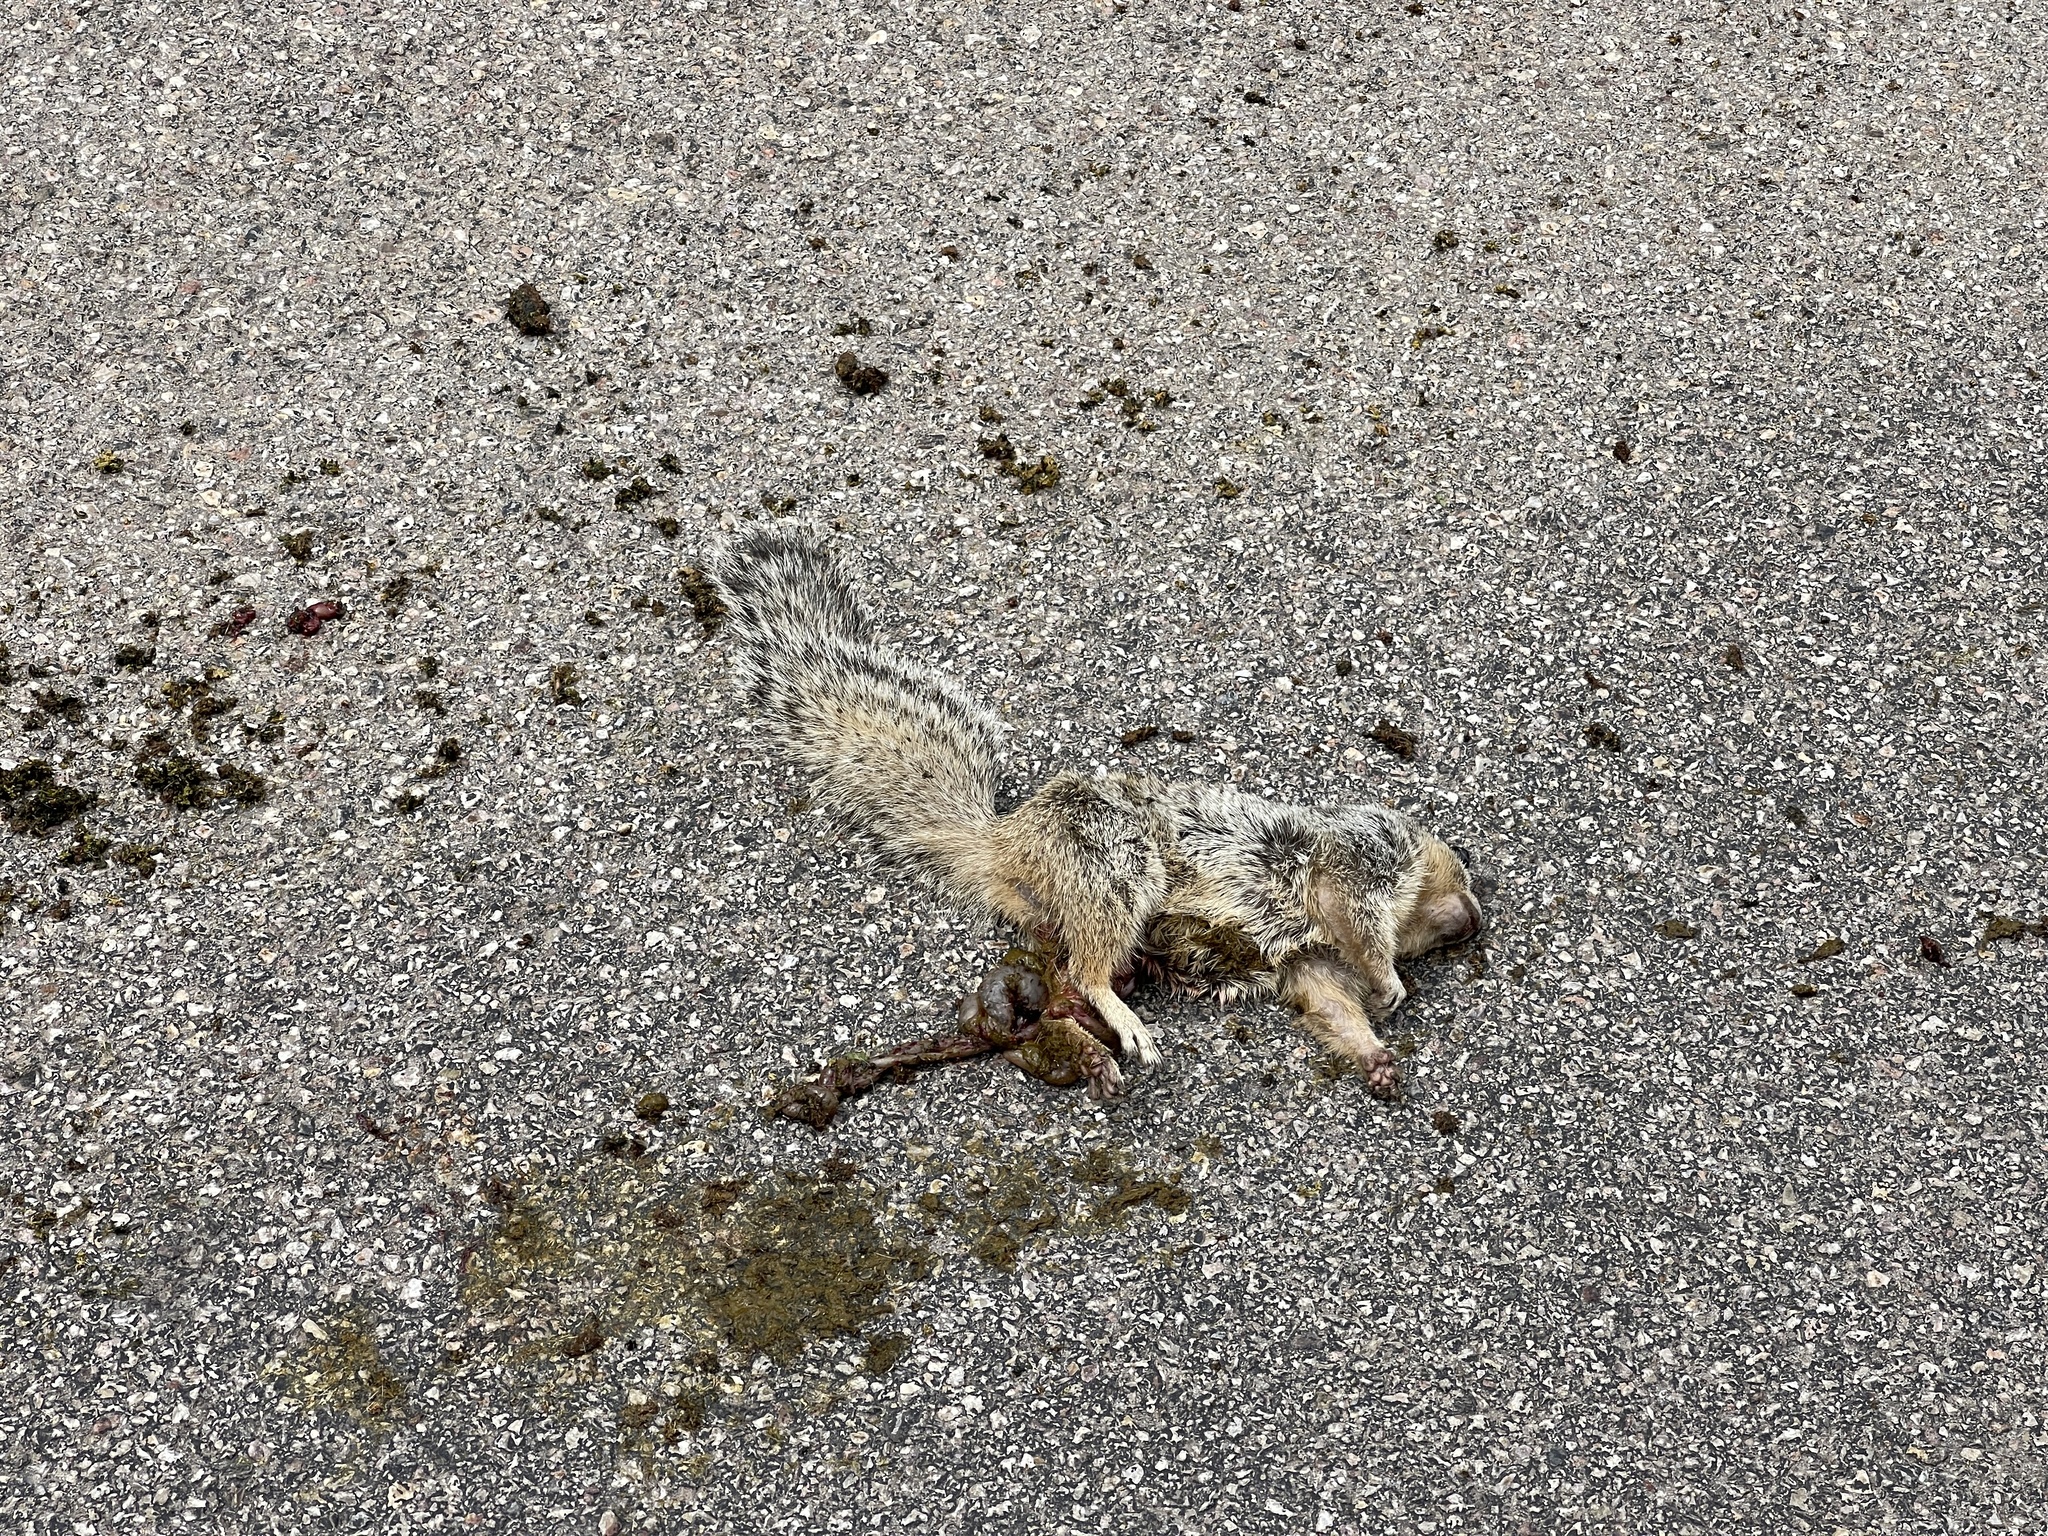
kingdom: Animalia
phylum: Chordata
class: Mammalia
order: Rodentia
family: Sciuridae
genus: Otospermophilus
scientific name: Otospermophilus variegatus
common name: Rock squirrel
